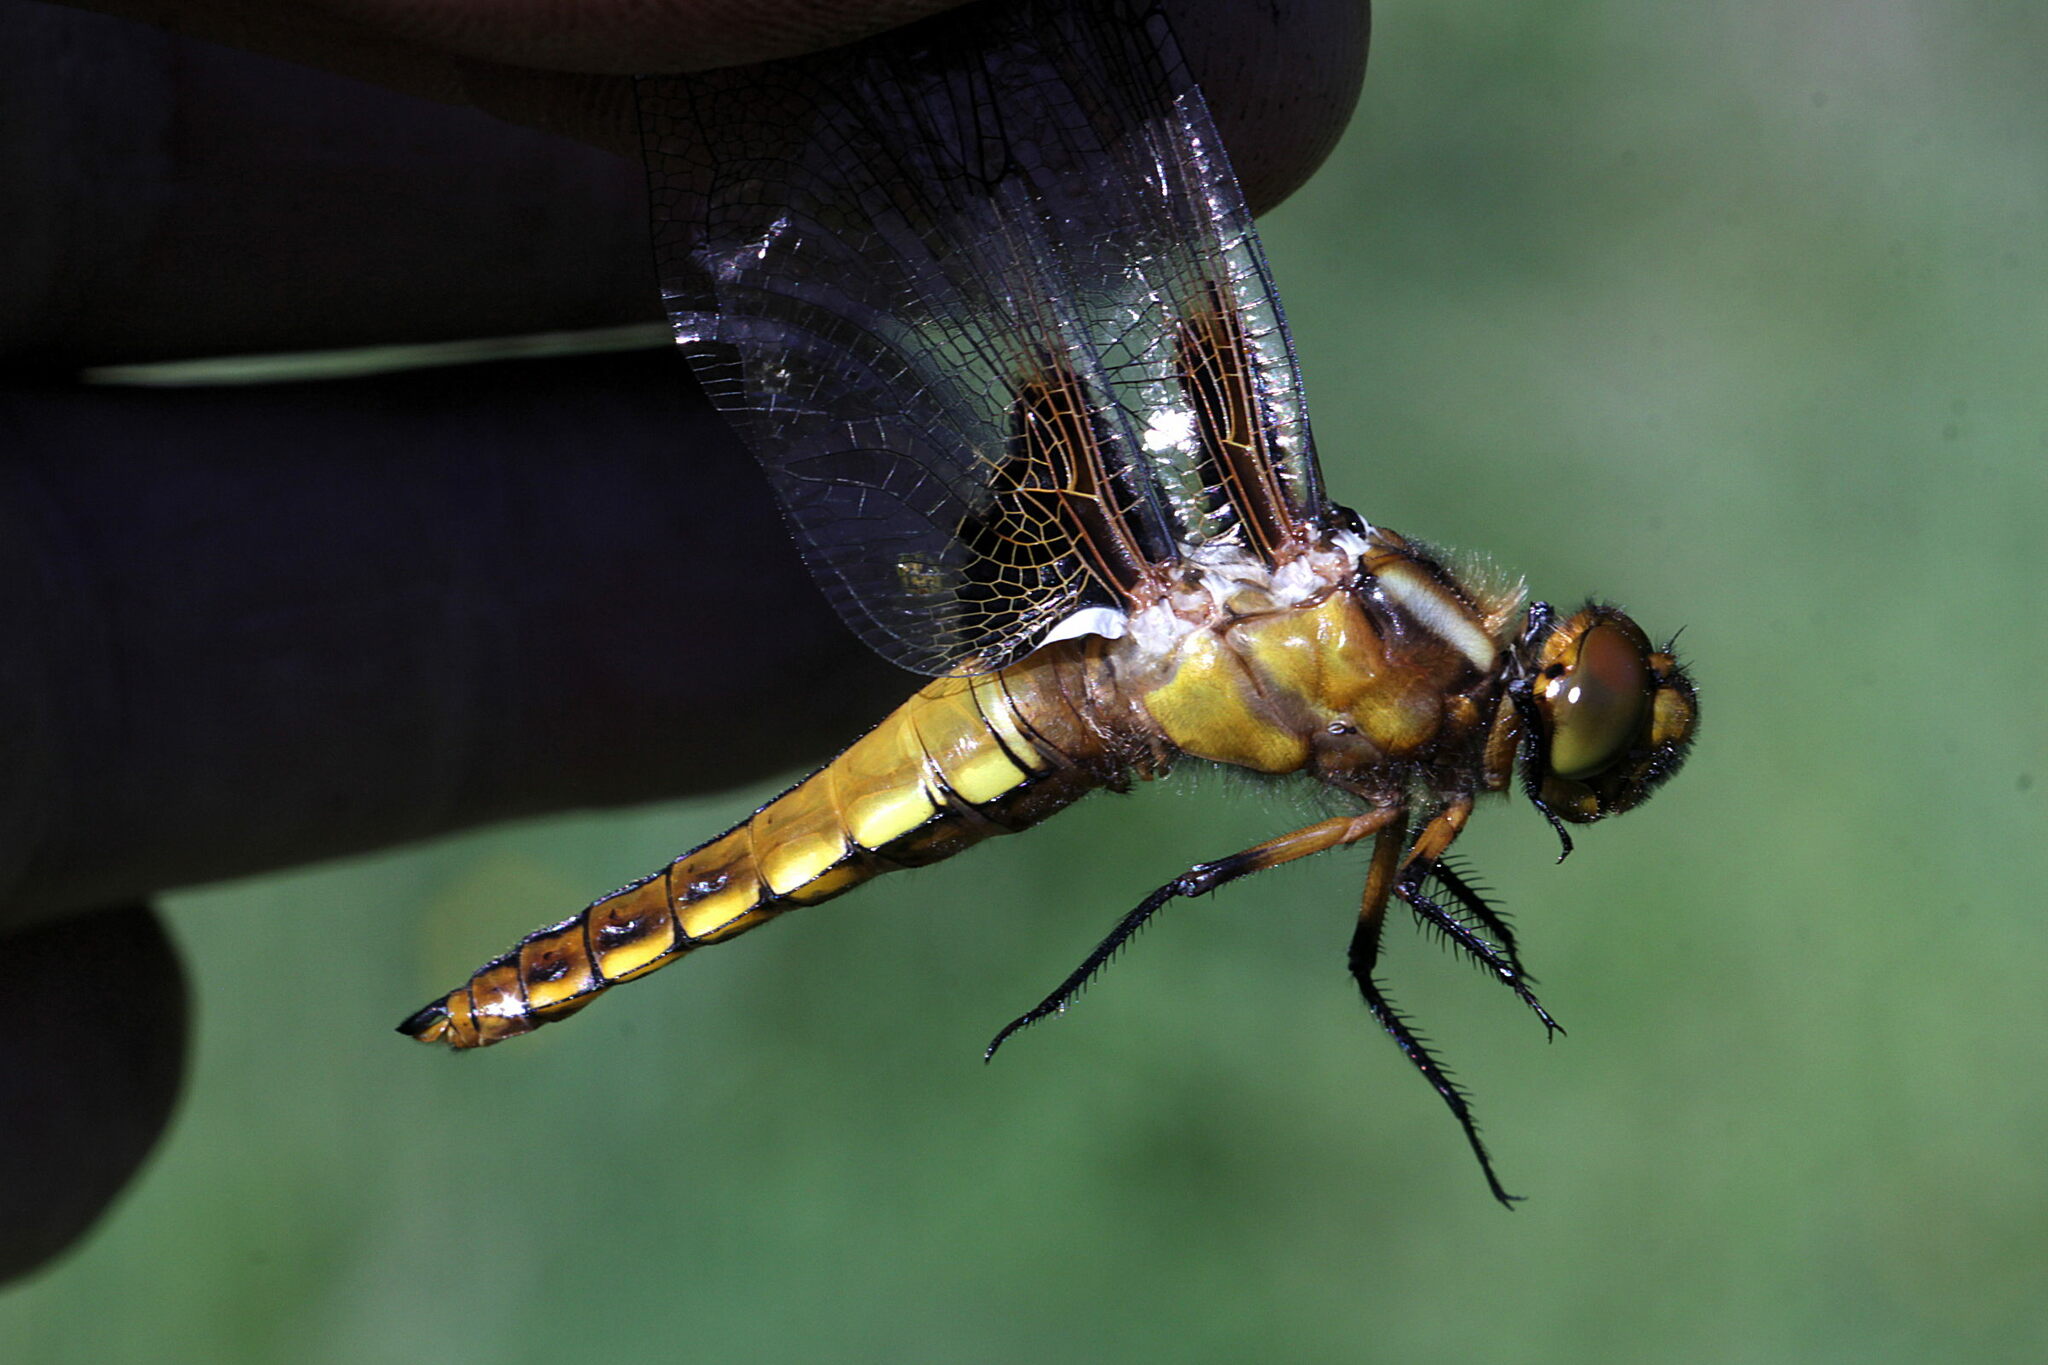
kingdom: Animalia
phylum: Arthropoda
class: Insecta
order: Odonata
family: Libellulidae
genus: Libellula
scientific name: Libellula depressa
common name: Broad-bodied chaser
